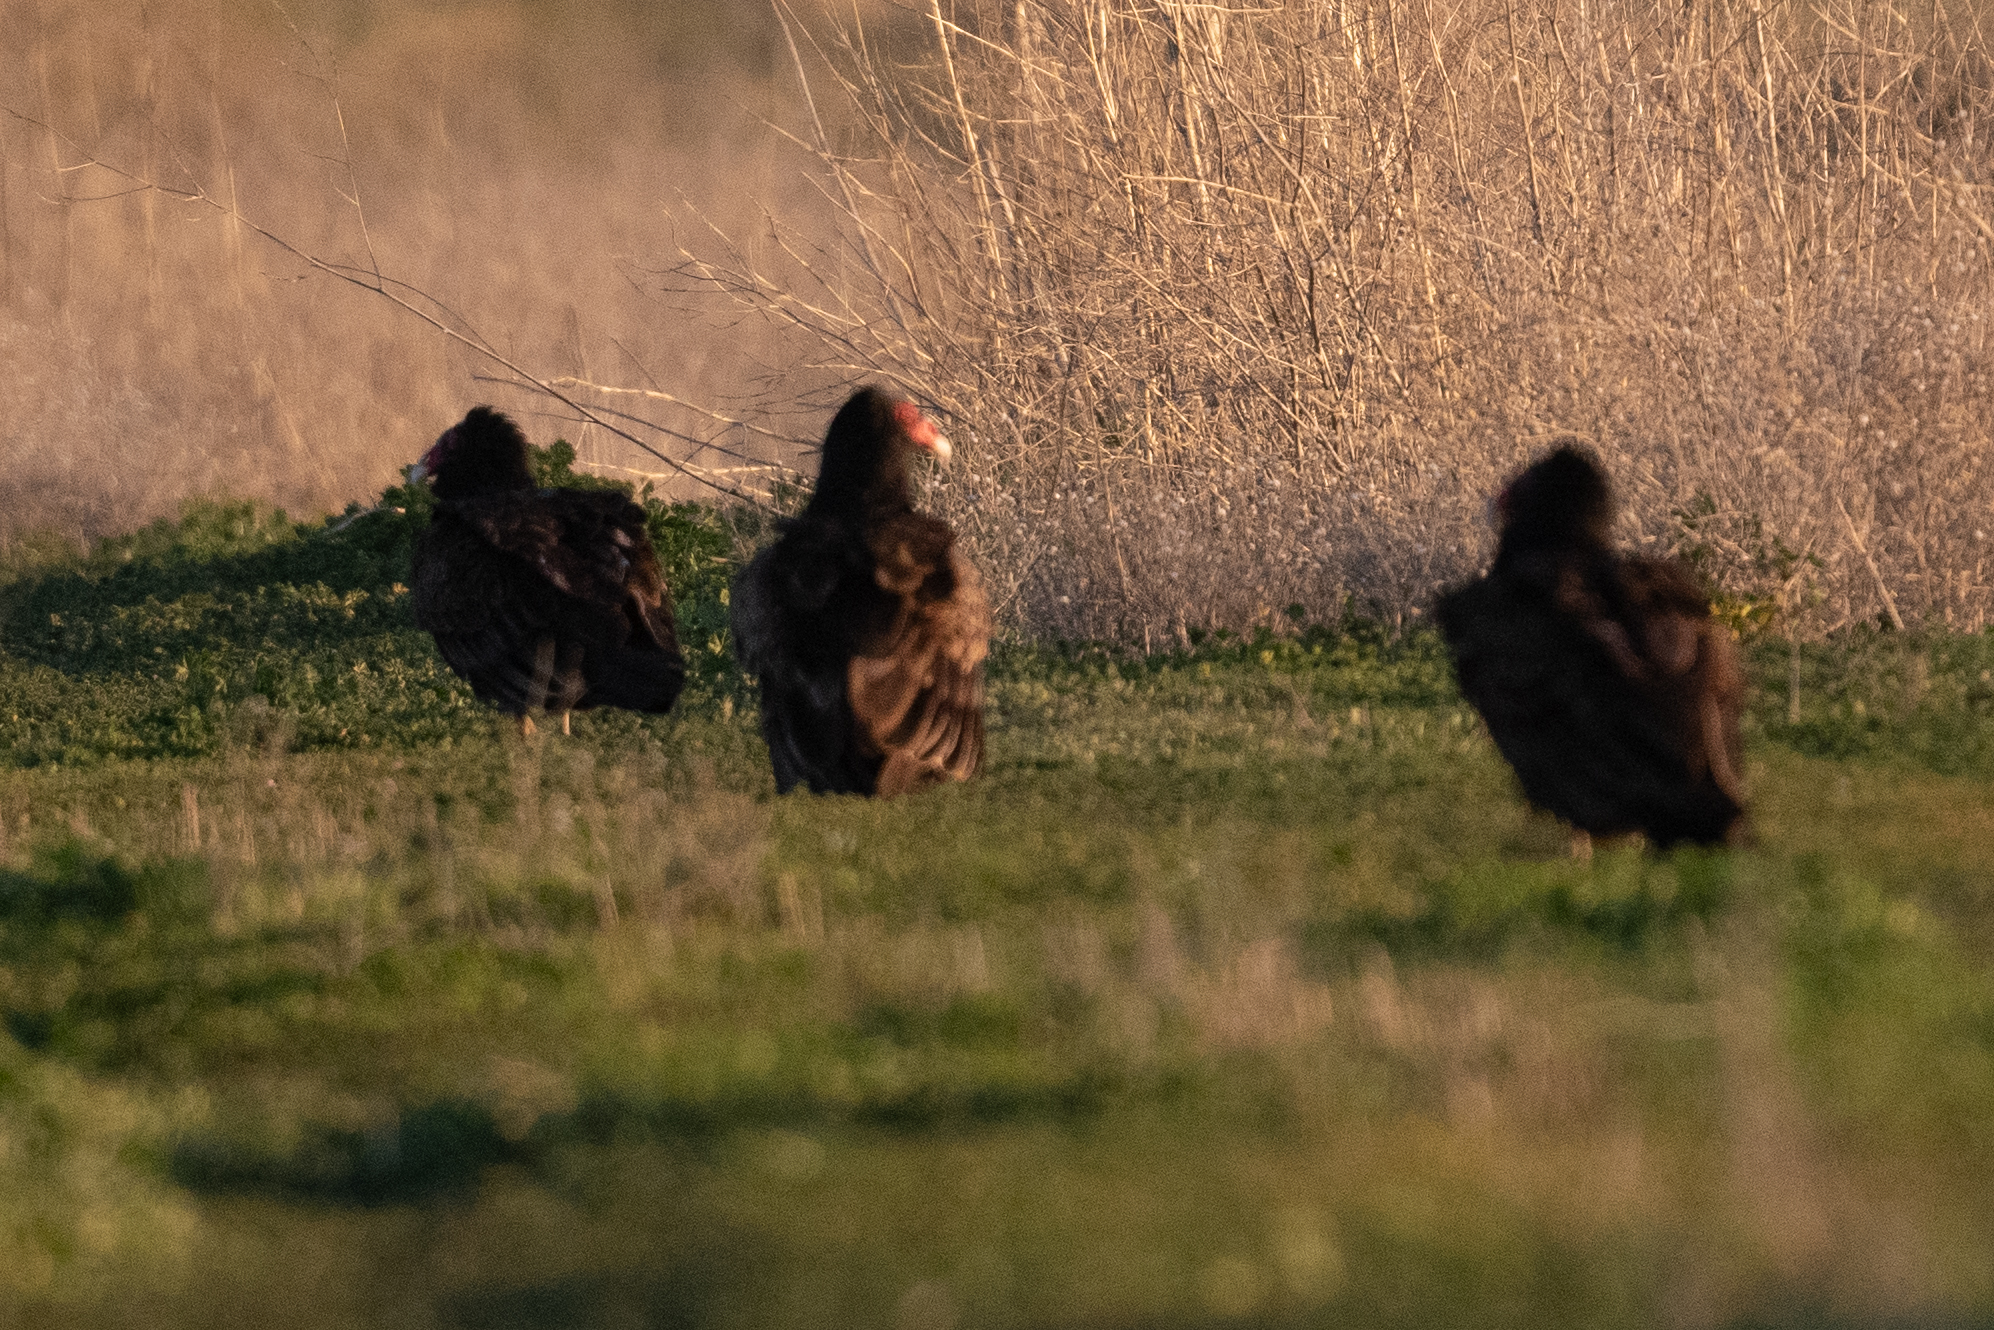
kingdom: Animalia
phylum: Chordata
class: Aves
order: Accipitriformes
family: Cathartidae
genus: Cathartes
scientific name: Cathartes aura
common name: Turkey vulture
